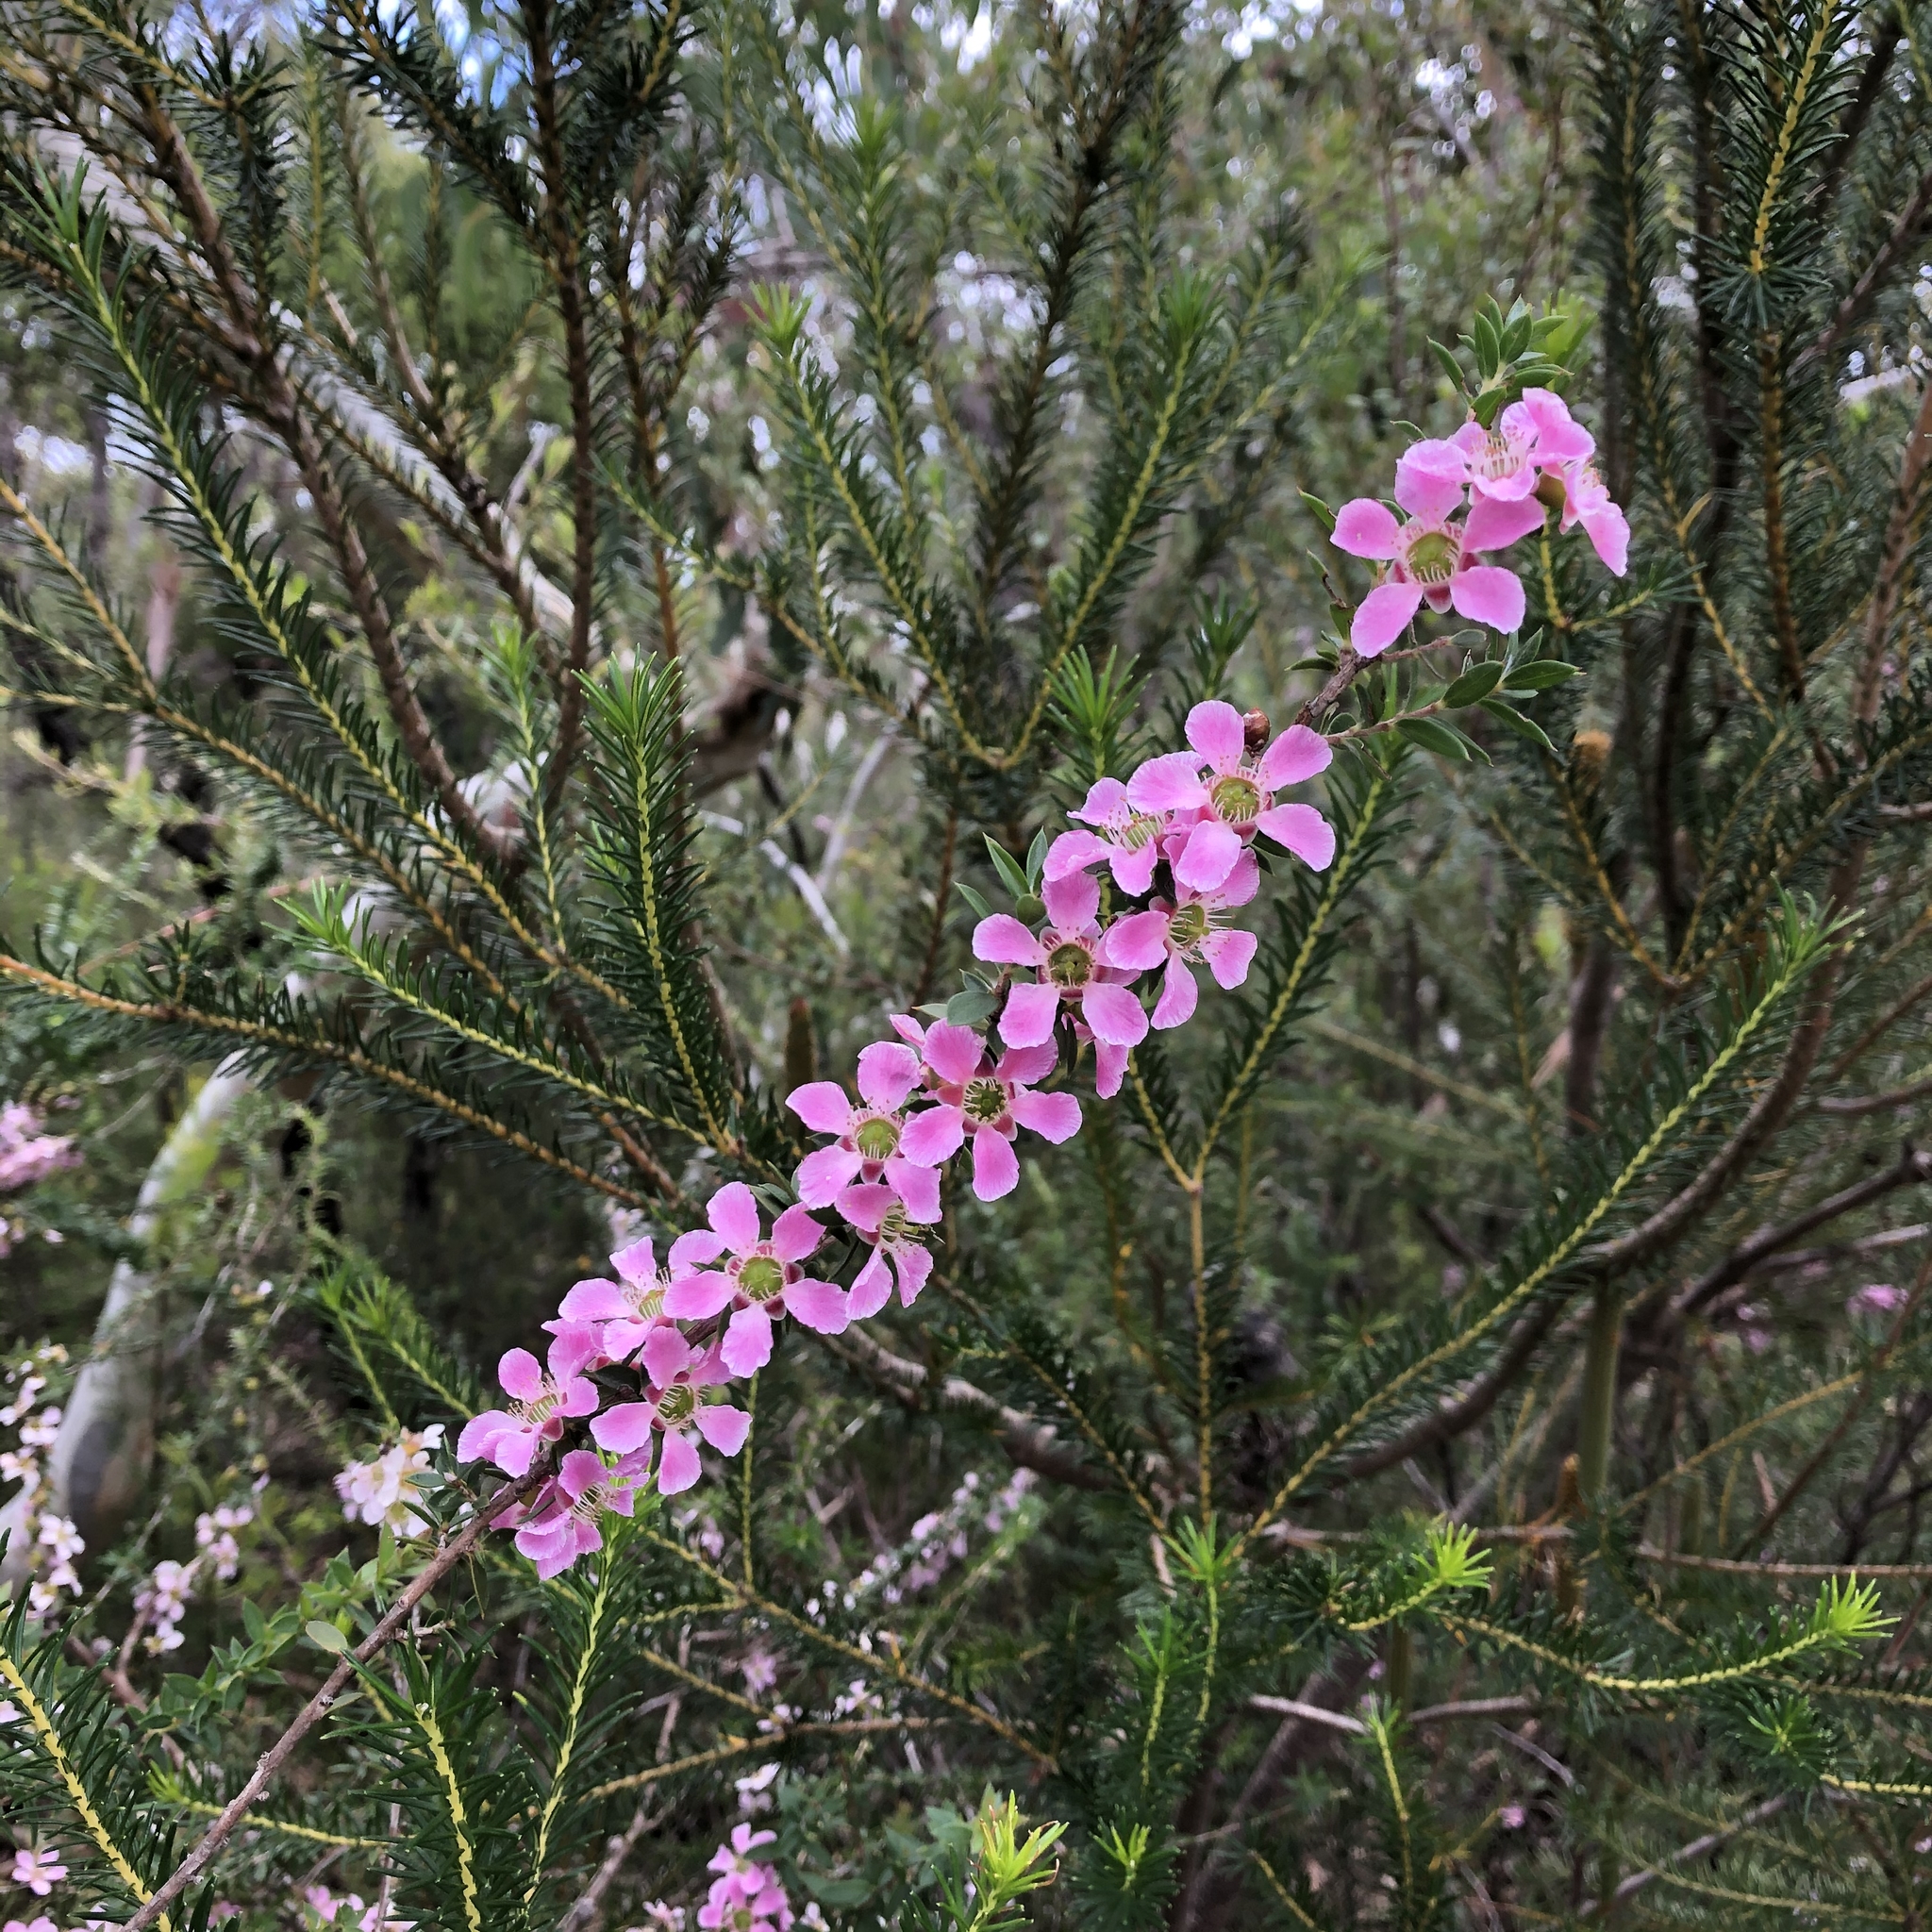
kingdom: Plantae
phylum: Tracheophyta
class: Magnoliopsida
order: Myrtales
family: Myrtaceae
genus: Leptospermum
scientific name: Leptospermum squarrosum
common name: Peach-blossom teatree
